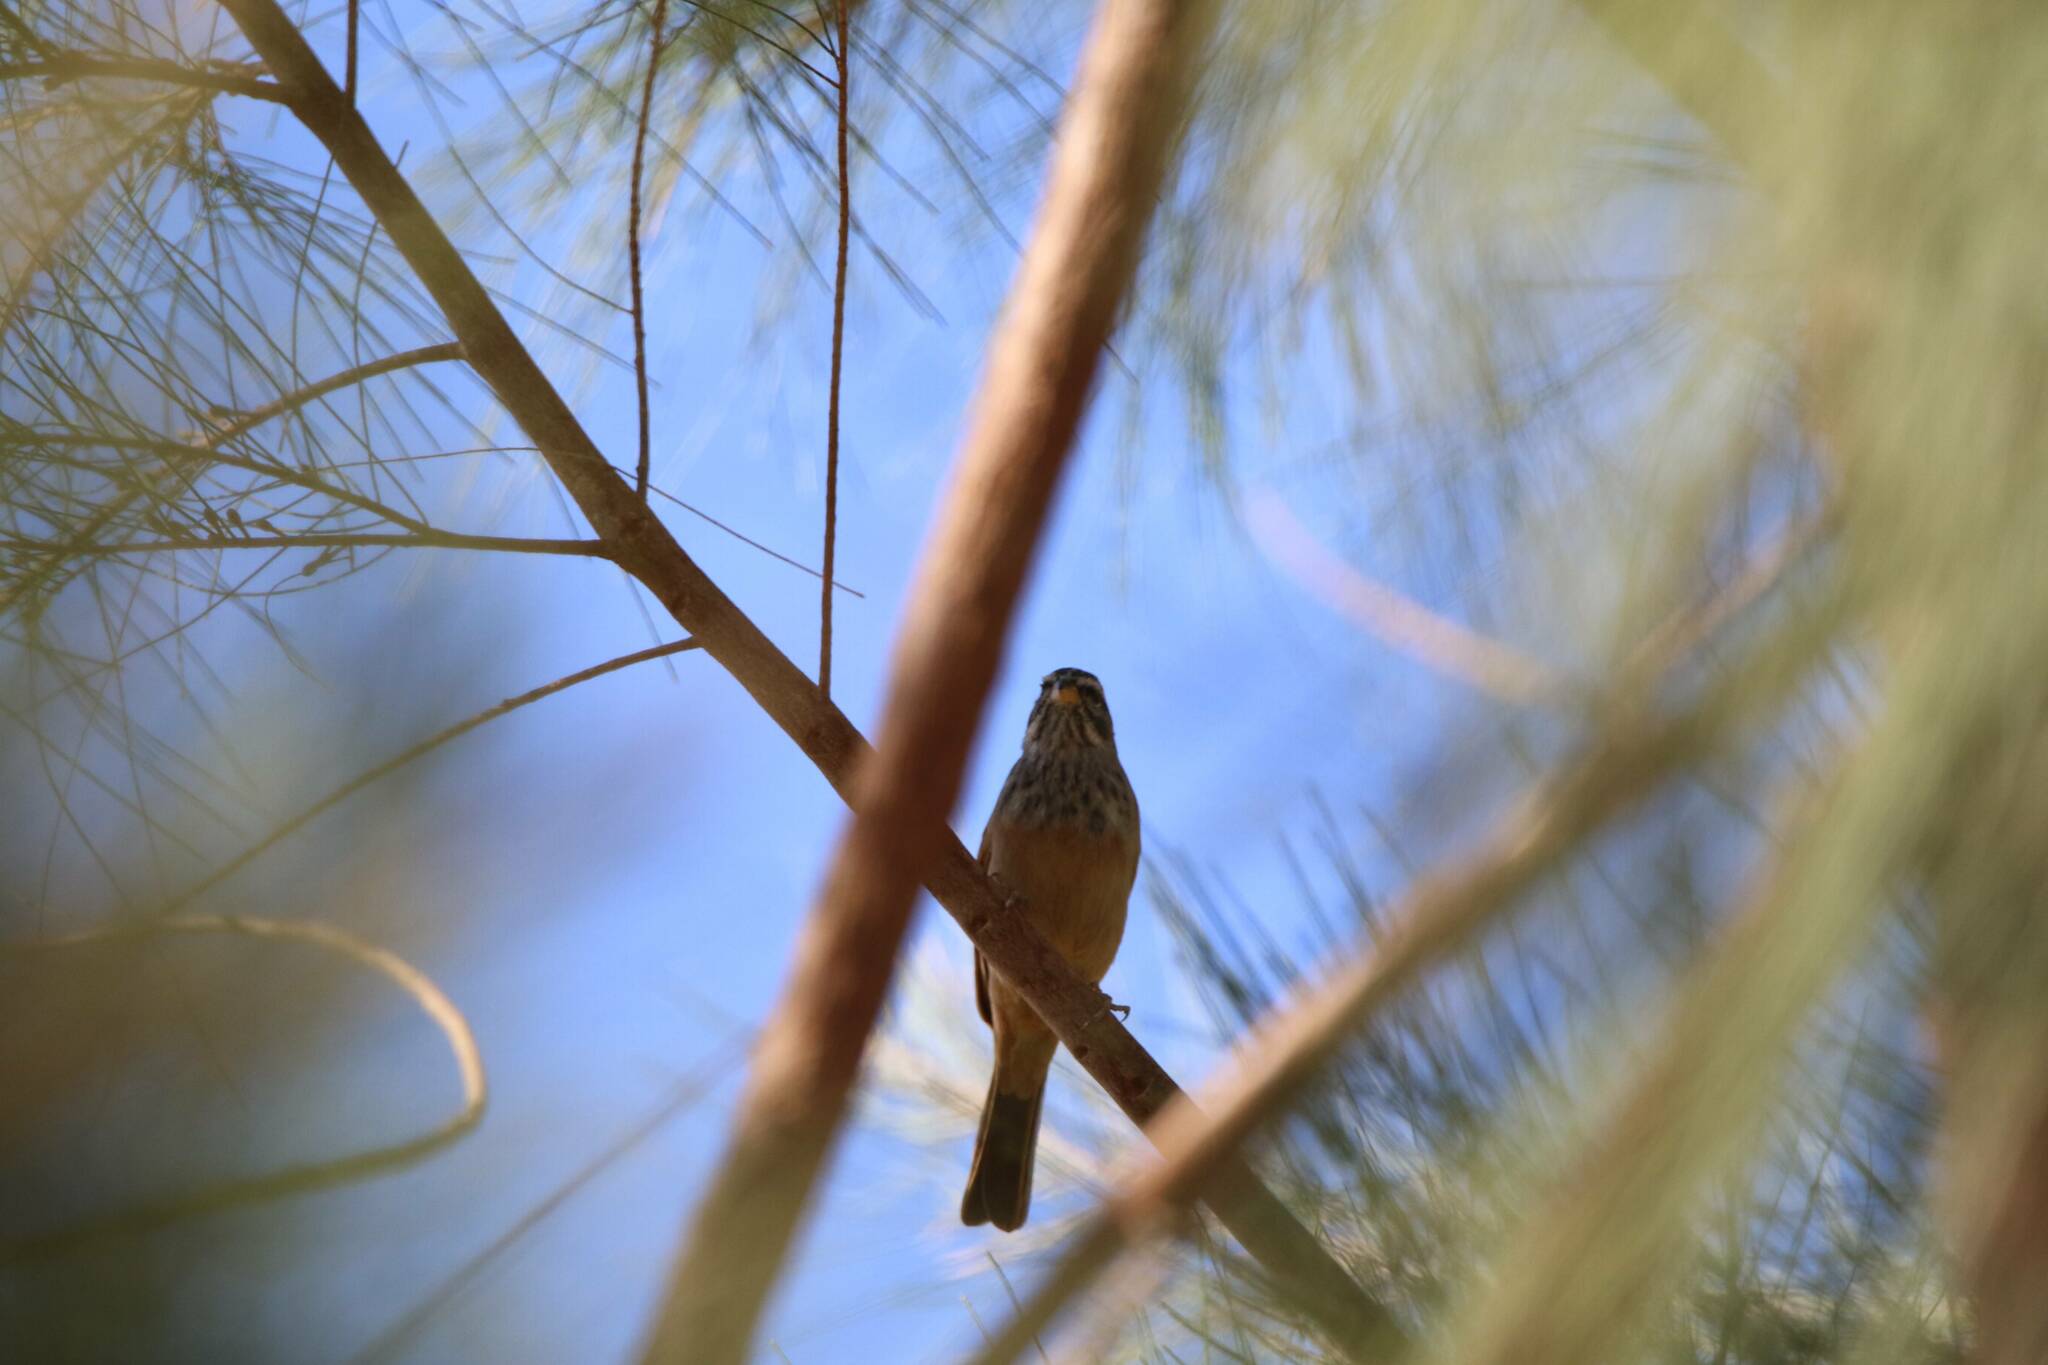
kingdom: Animalia
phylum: Chordata
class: Aves
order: Passeriformes
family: Emberizidae
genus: Emberiza
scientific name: Emberiza sahari
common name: House bunting
